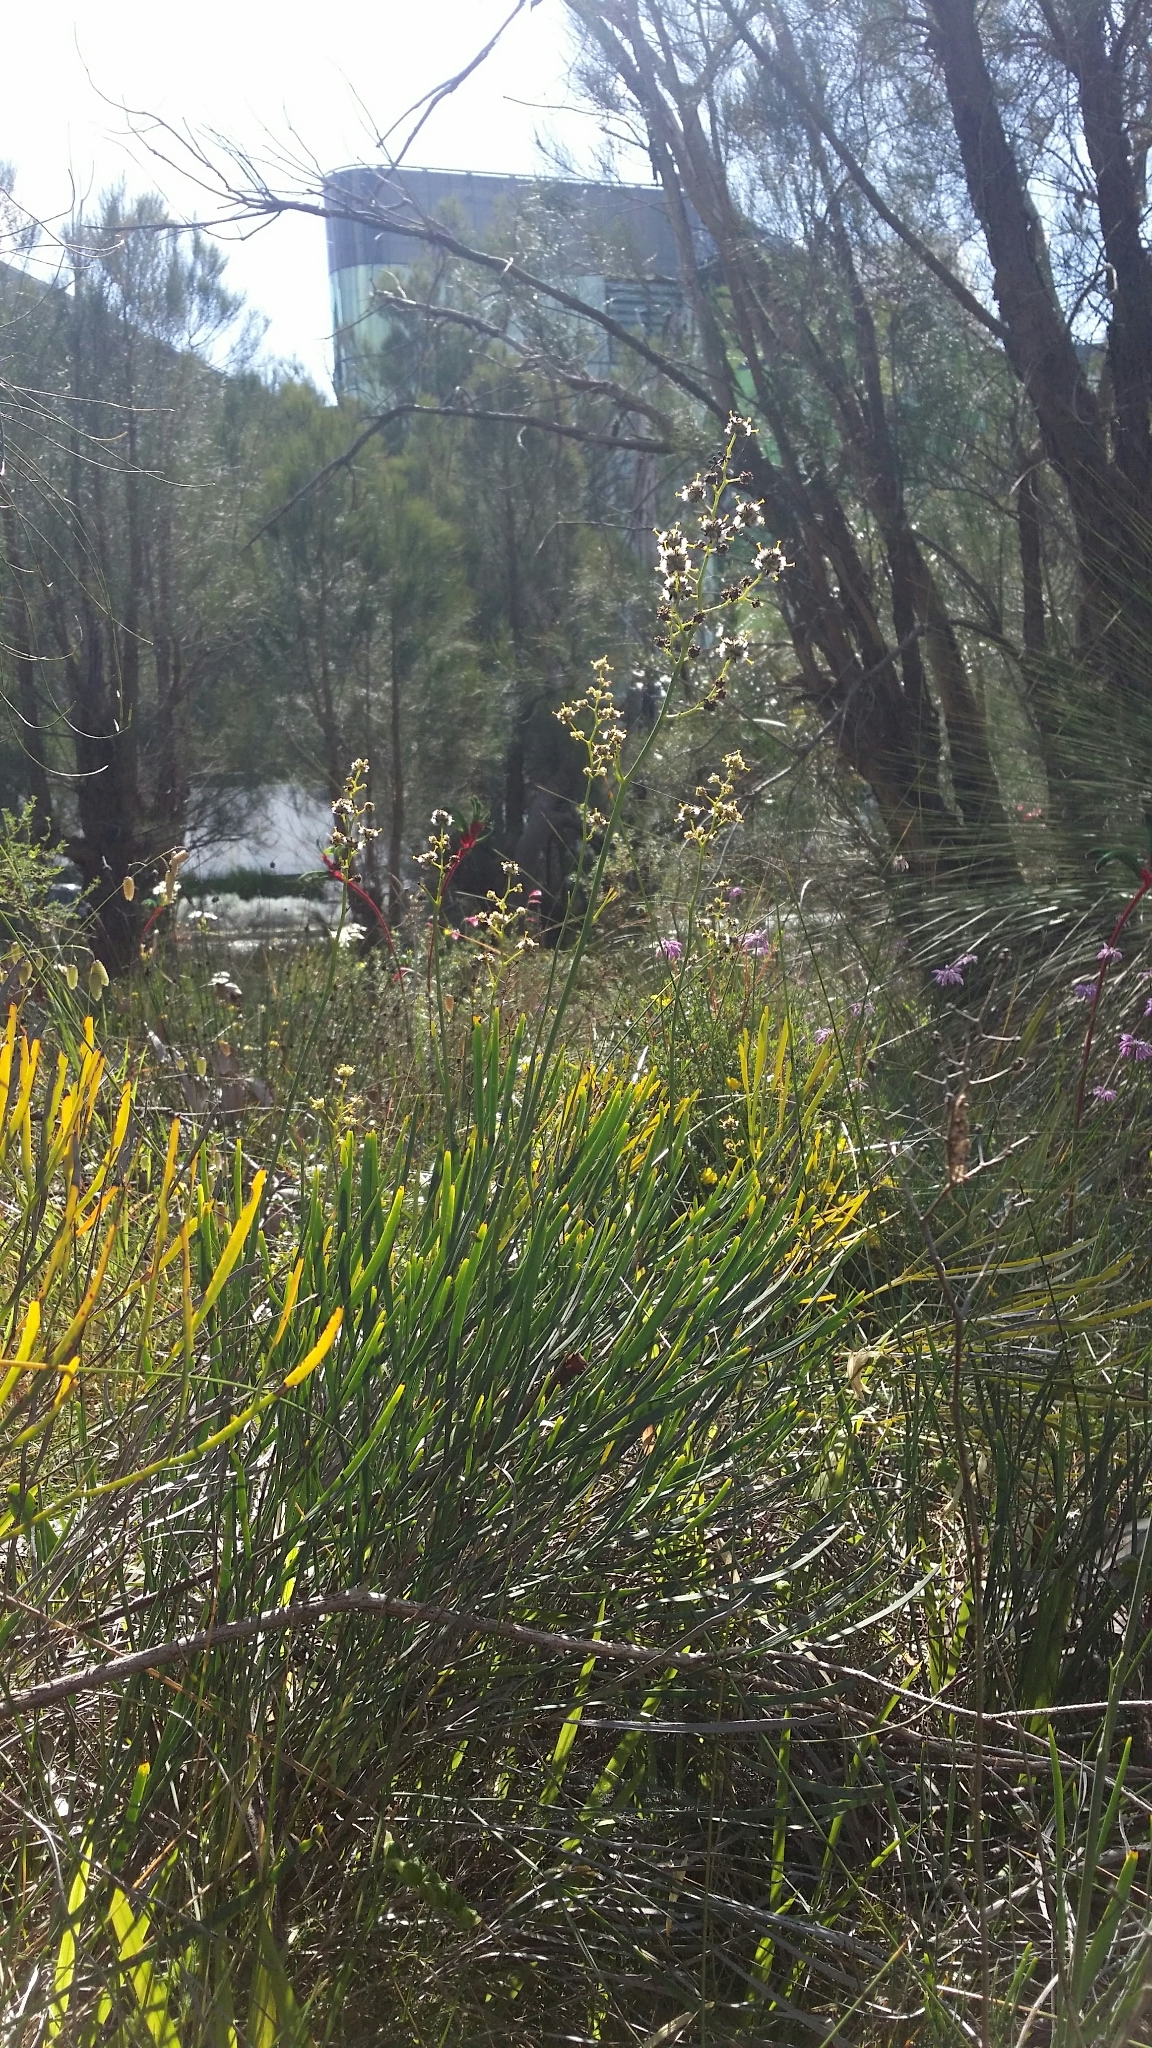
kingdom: Plantae
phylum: Tracheophyta
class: Magnoliopsida
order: Proteales
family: Proteaceae
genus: Stirlingia
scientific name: Stirlingia latifolia
